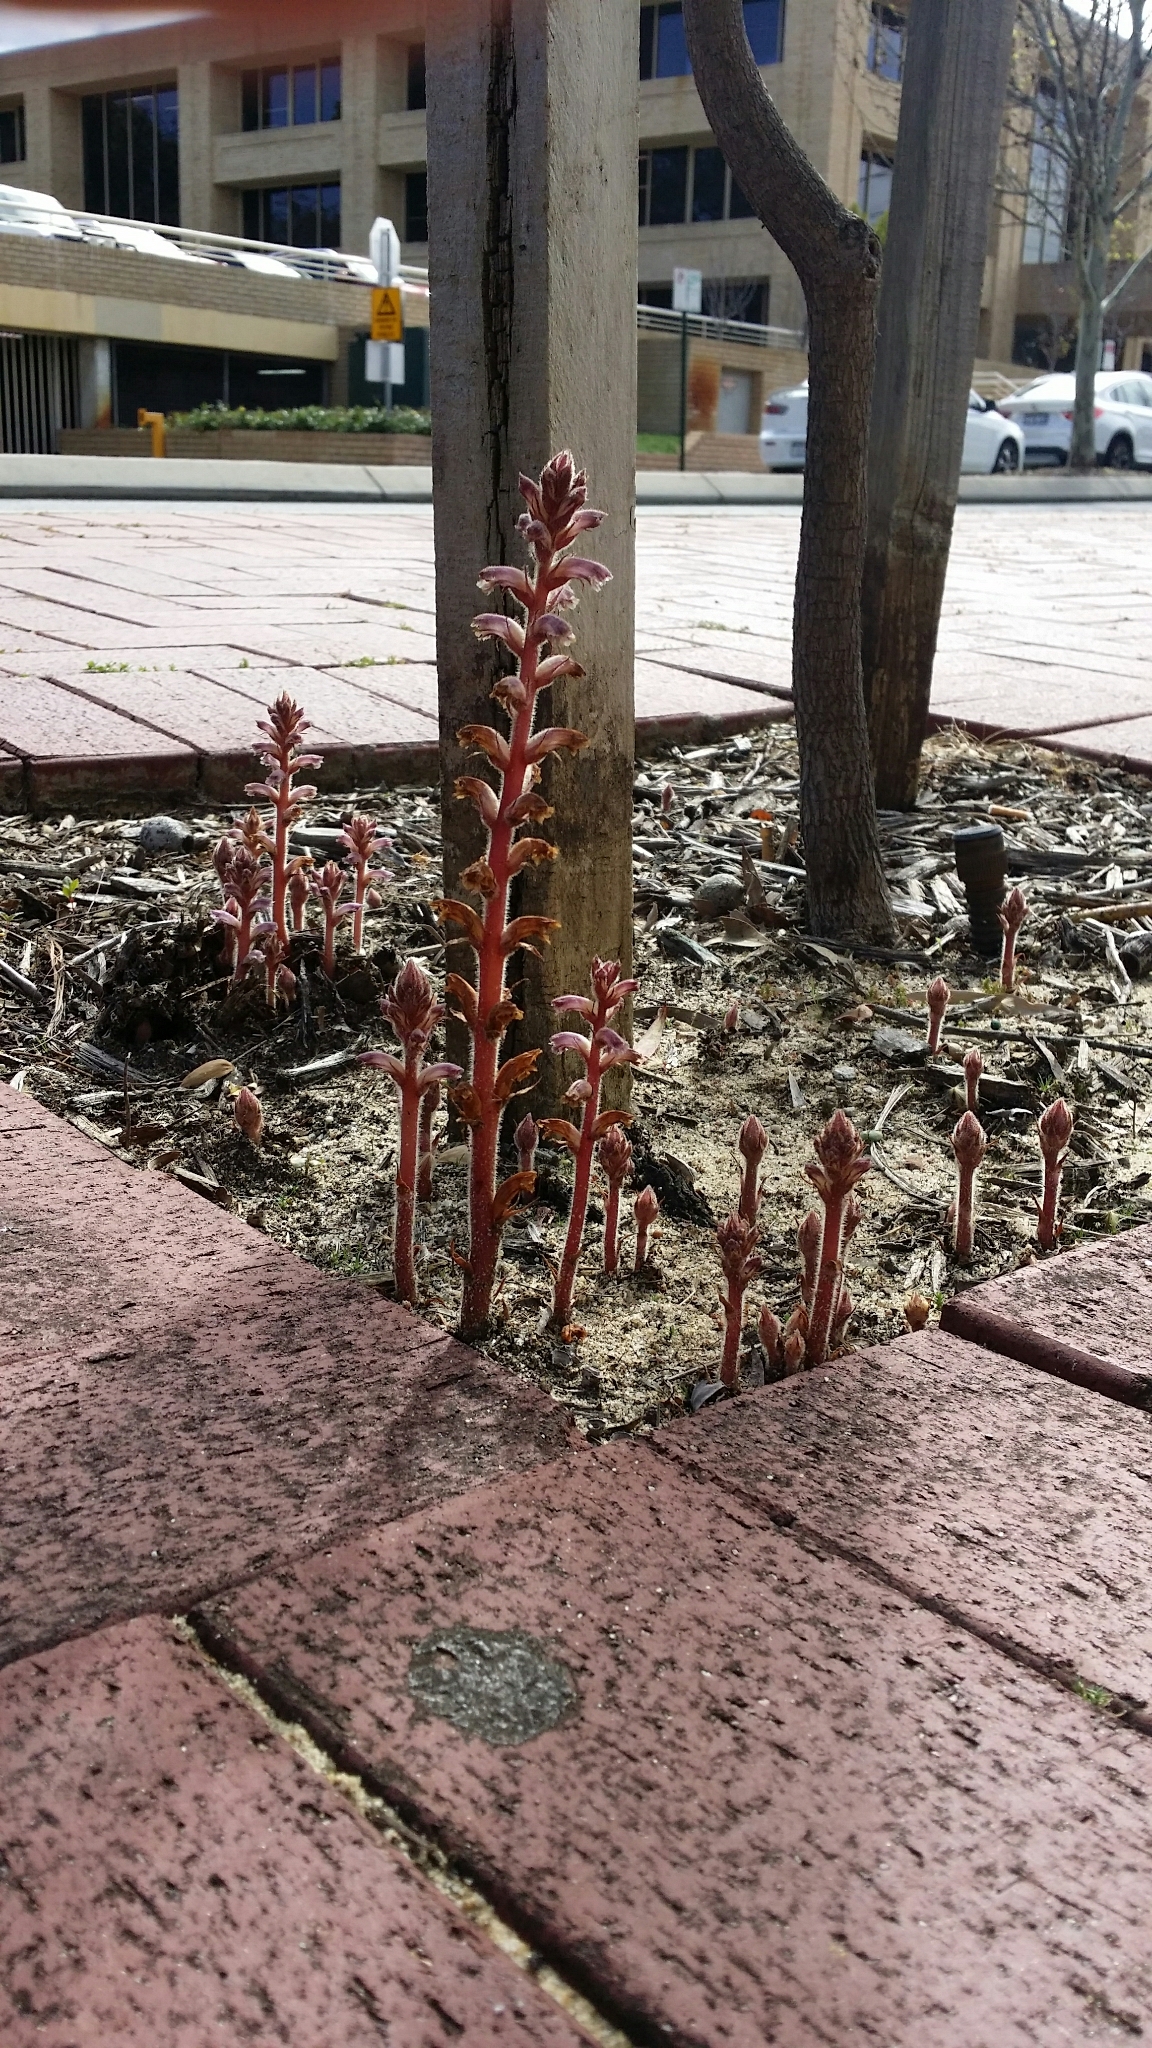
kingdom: Plantae
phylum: Tracheophyta
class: Magnoliopsida
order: Lamiales
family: Orobanchaceae
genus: Orobanche
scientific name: Orobanche minor
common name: Common broomrape
